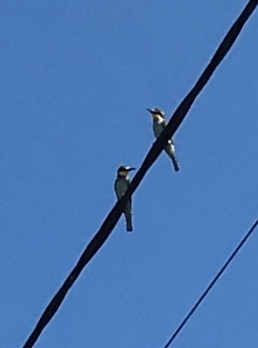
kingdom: Animalia
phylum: Chordata
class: Aves
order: Coraciiformes
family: Meropidae
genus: Merops
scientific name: Merops apiaster
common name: European bee-eater
